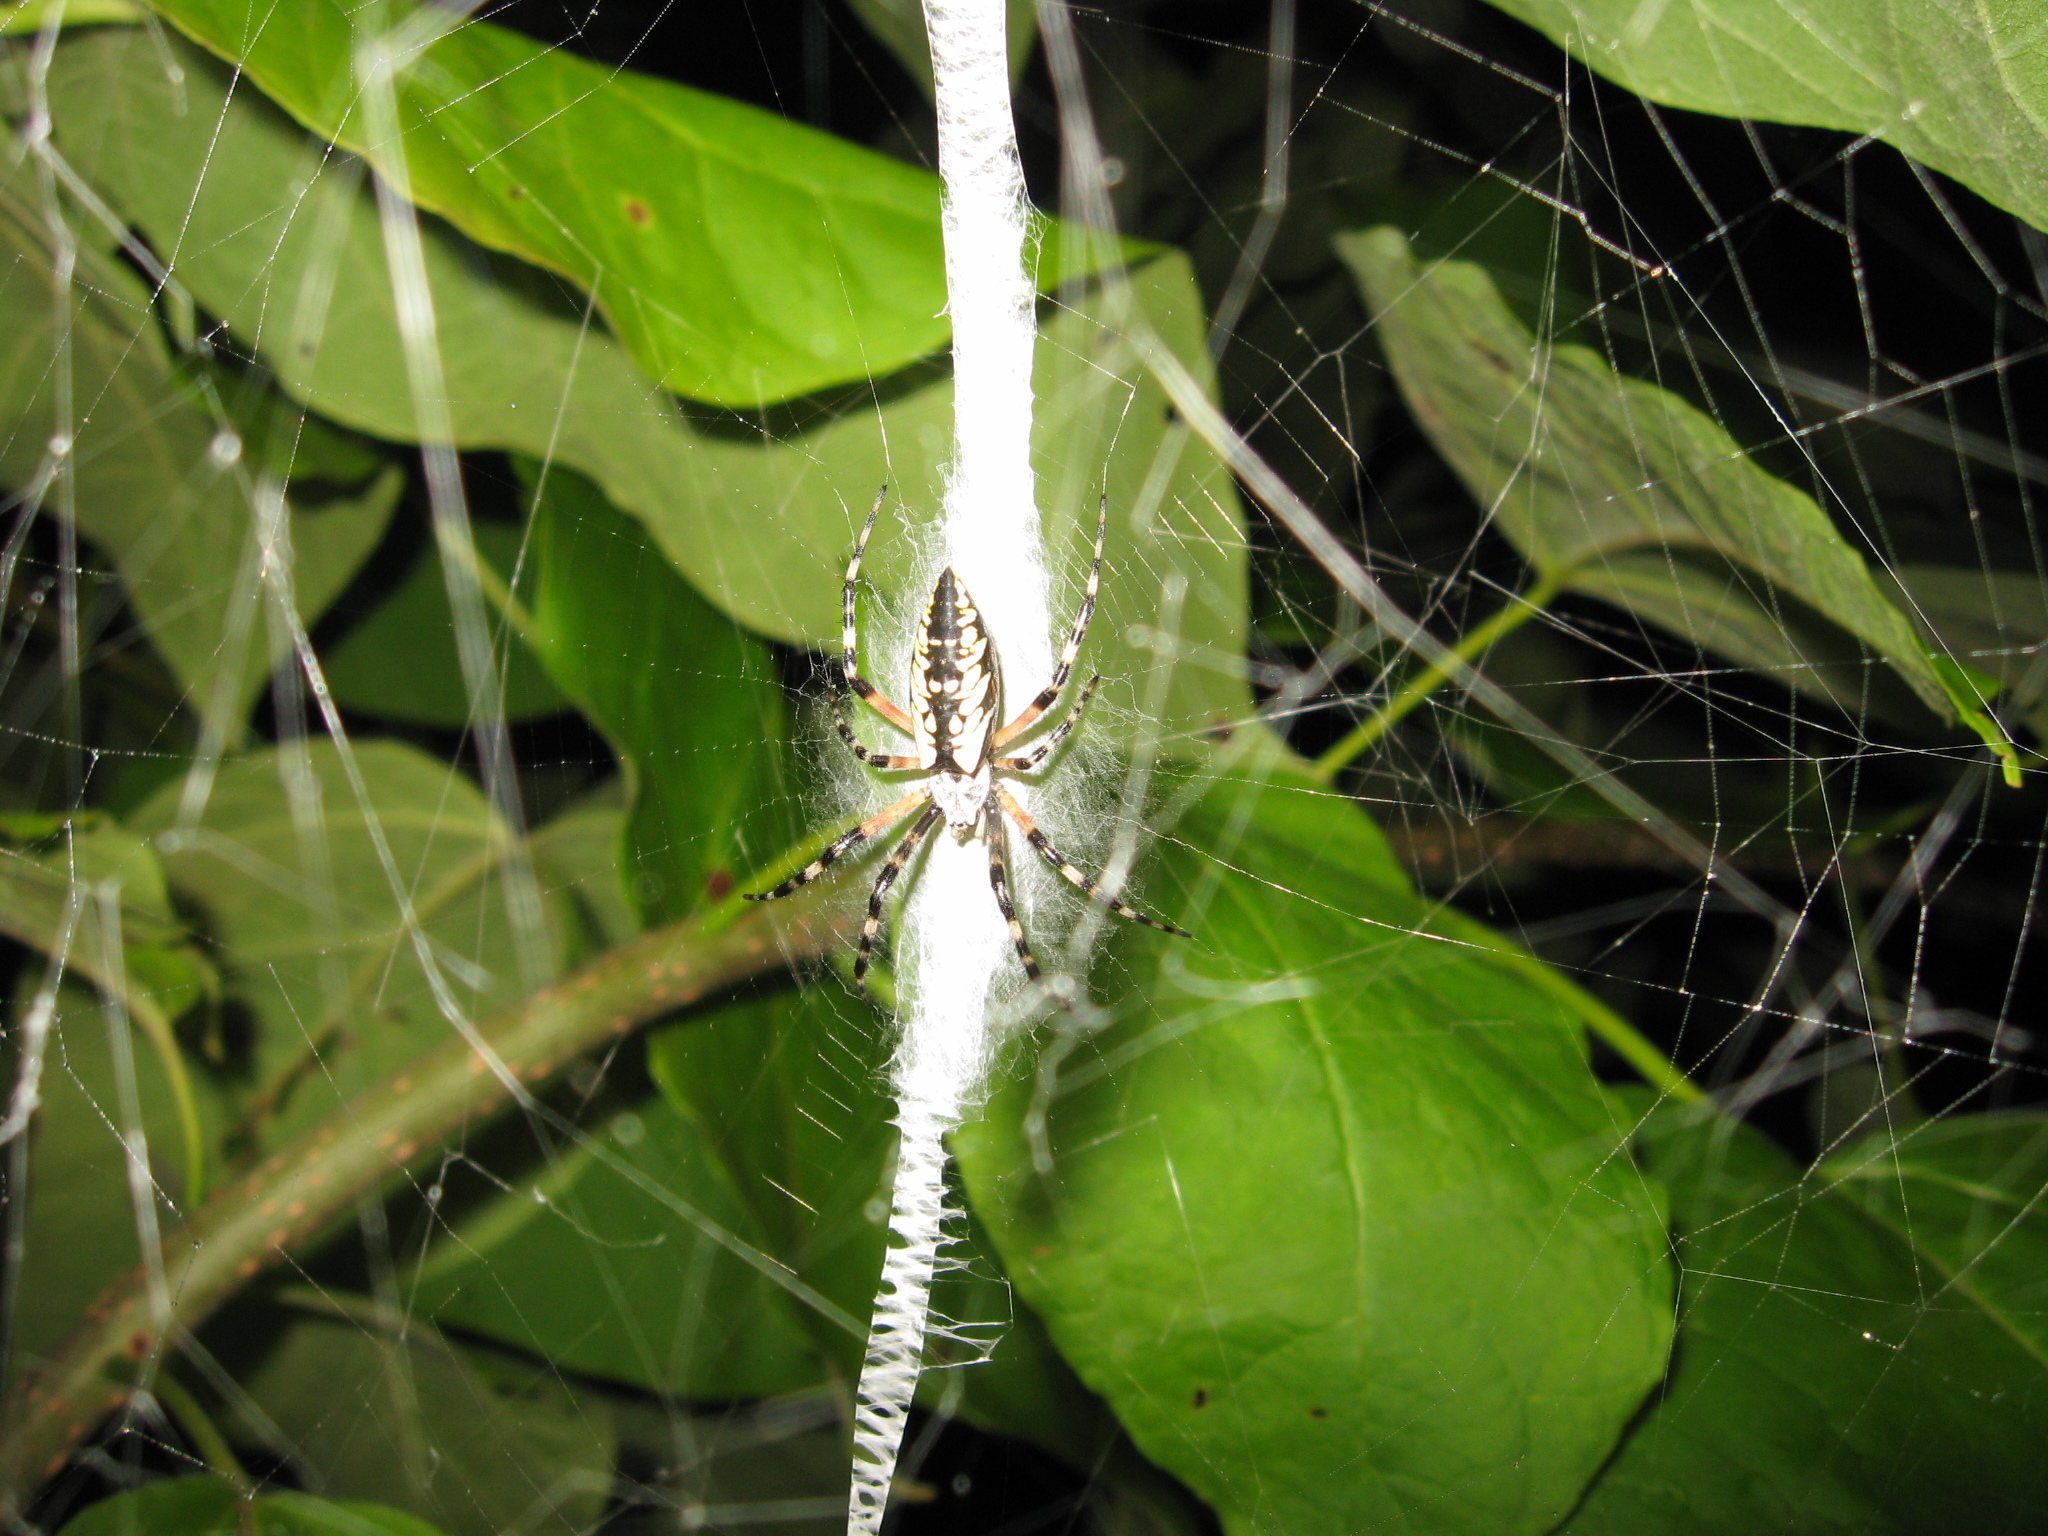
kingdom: Animalia
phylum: Arthropoda
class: Arachnida
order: Araneae
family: Araneidae
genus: Argiope
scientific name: Argiope aurantia
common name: Orb weavers
